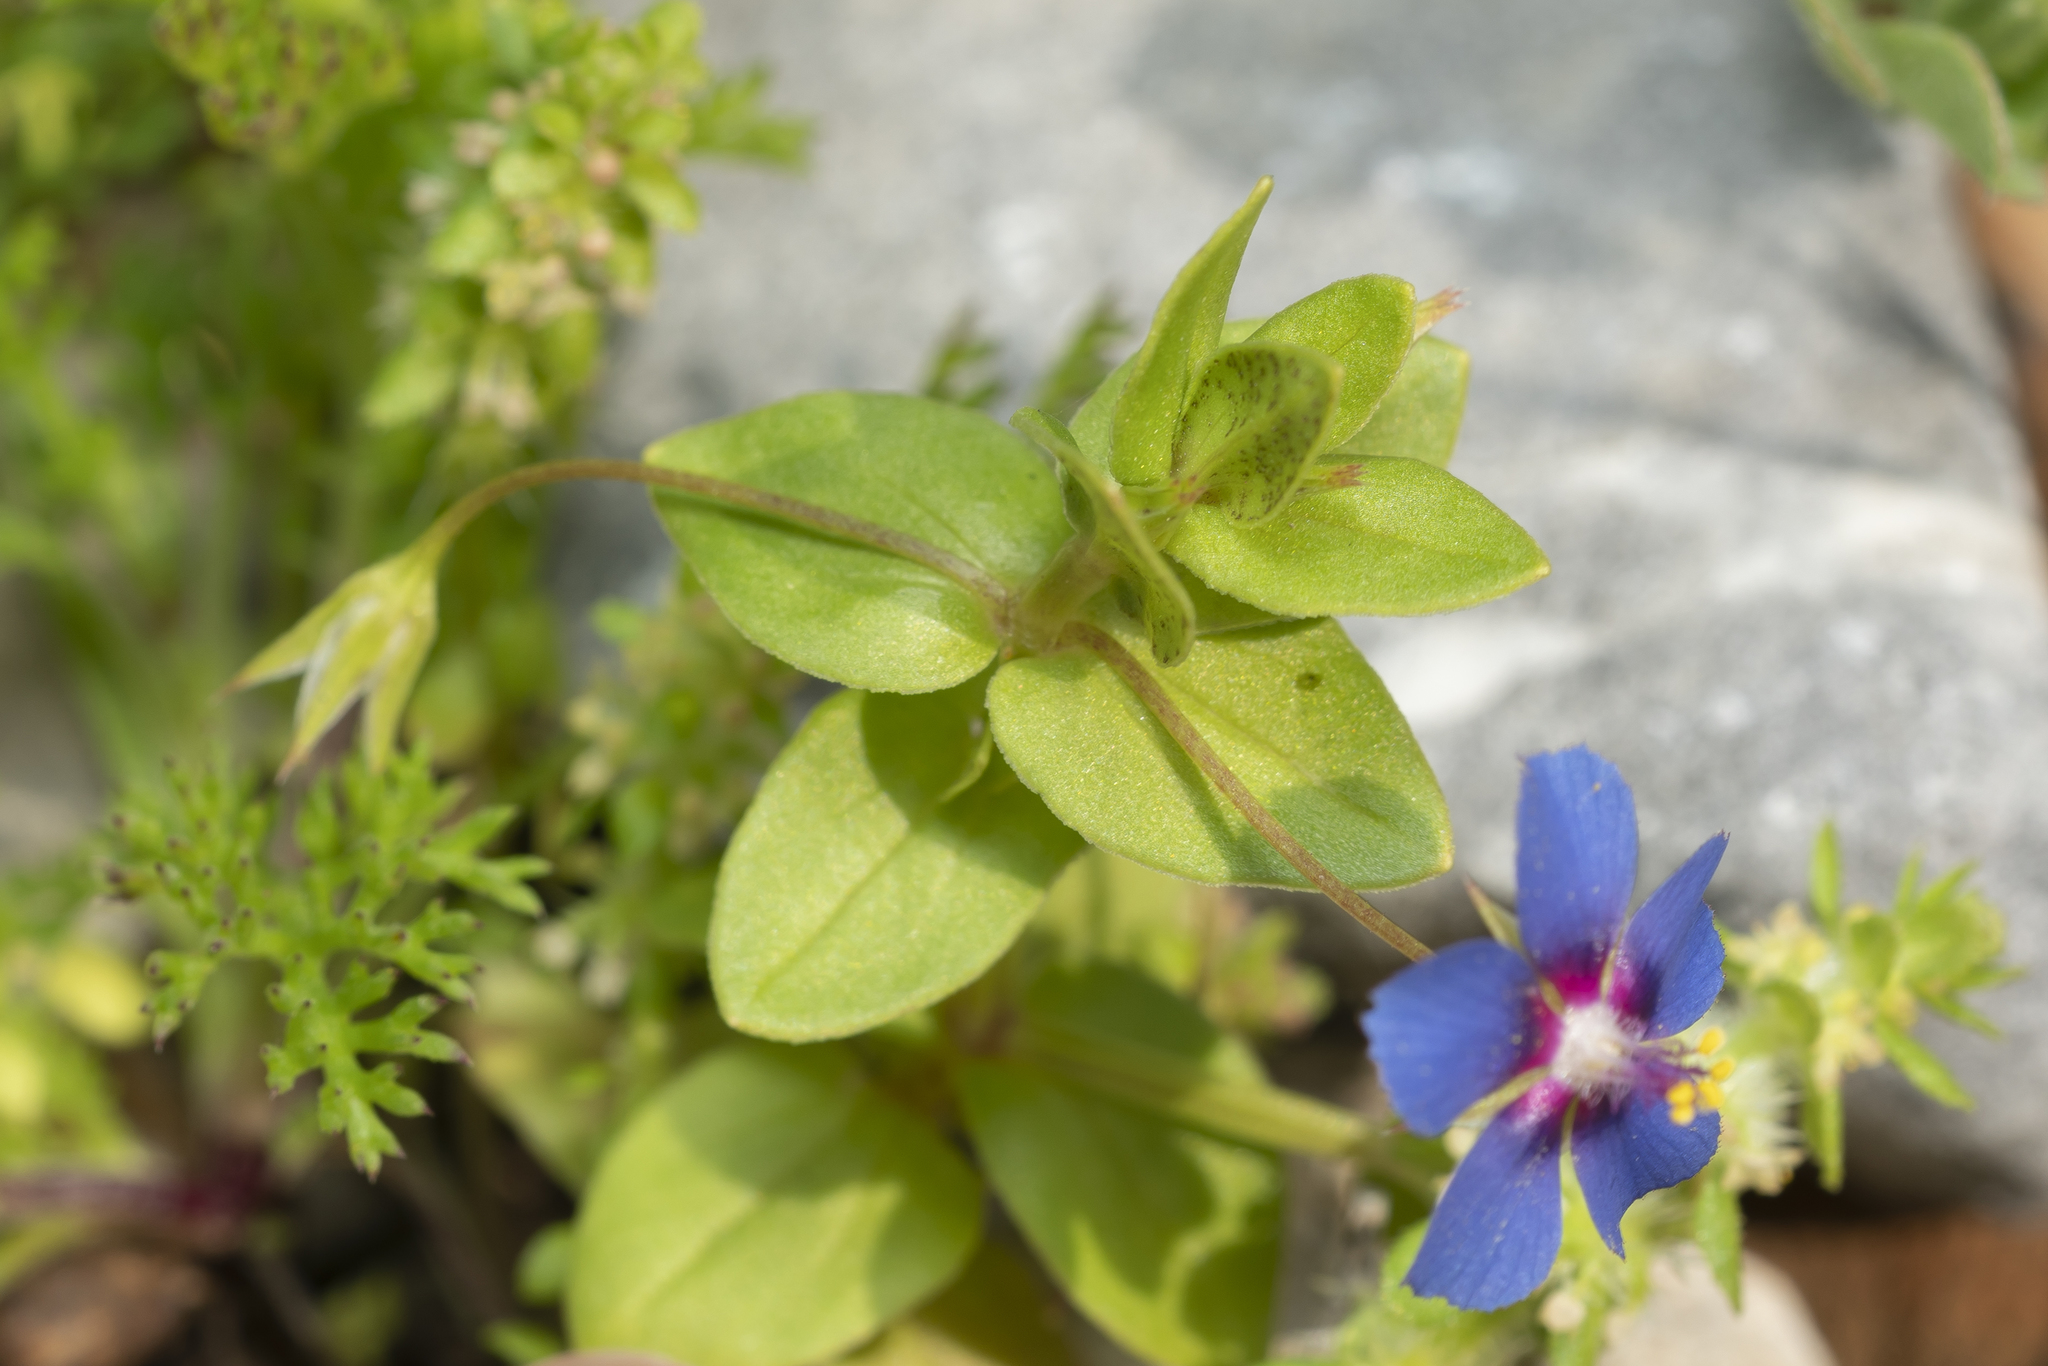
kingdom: Plantae
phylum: Tracheophyta
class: Magnoliopsida
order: Ericales
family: Primulaceae
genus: Lysimachia
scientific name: Lysimachia loeflingii
